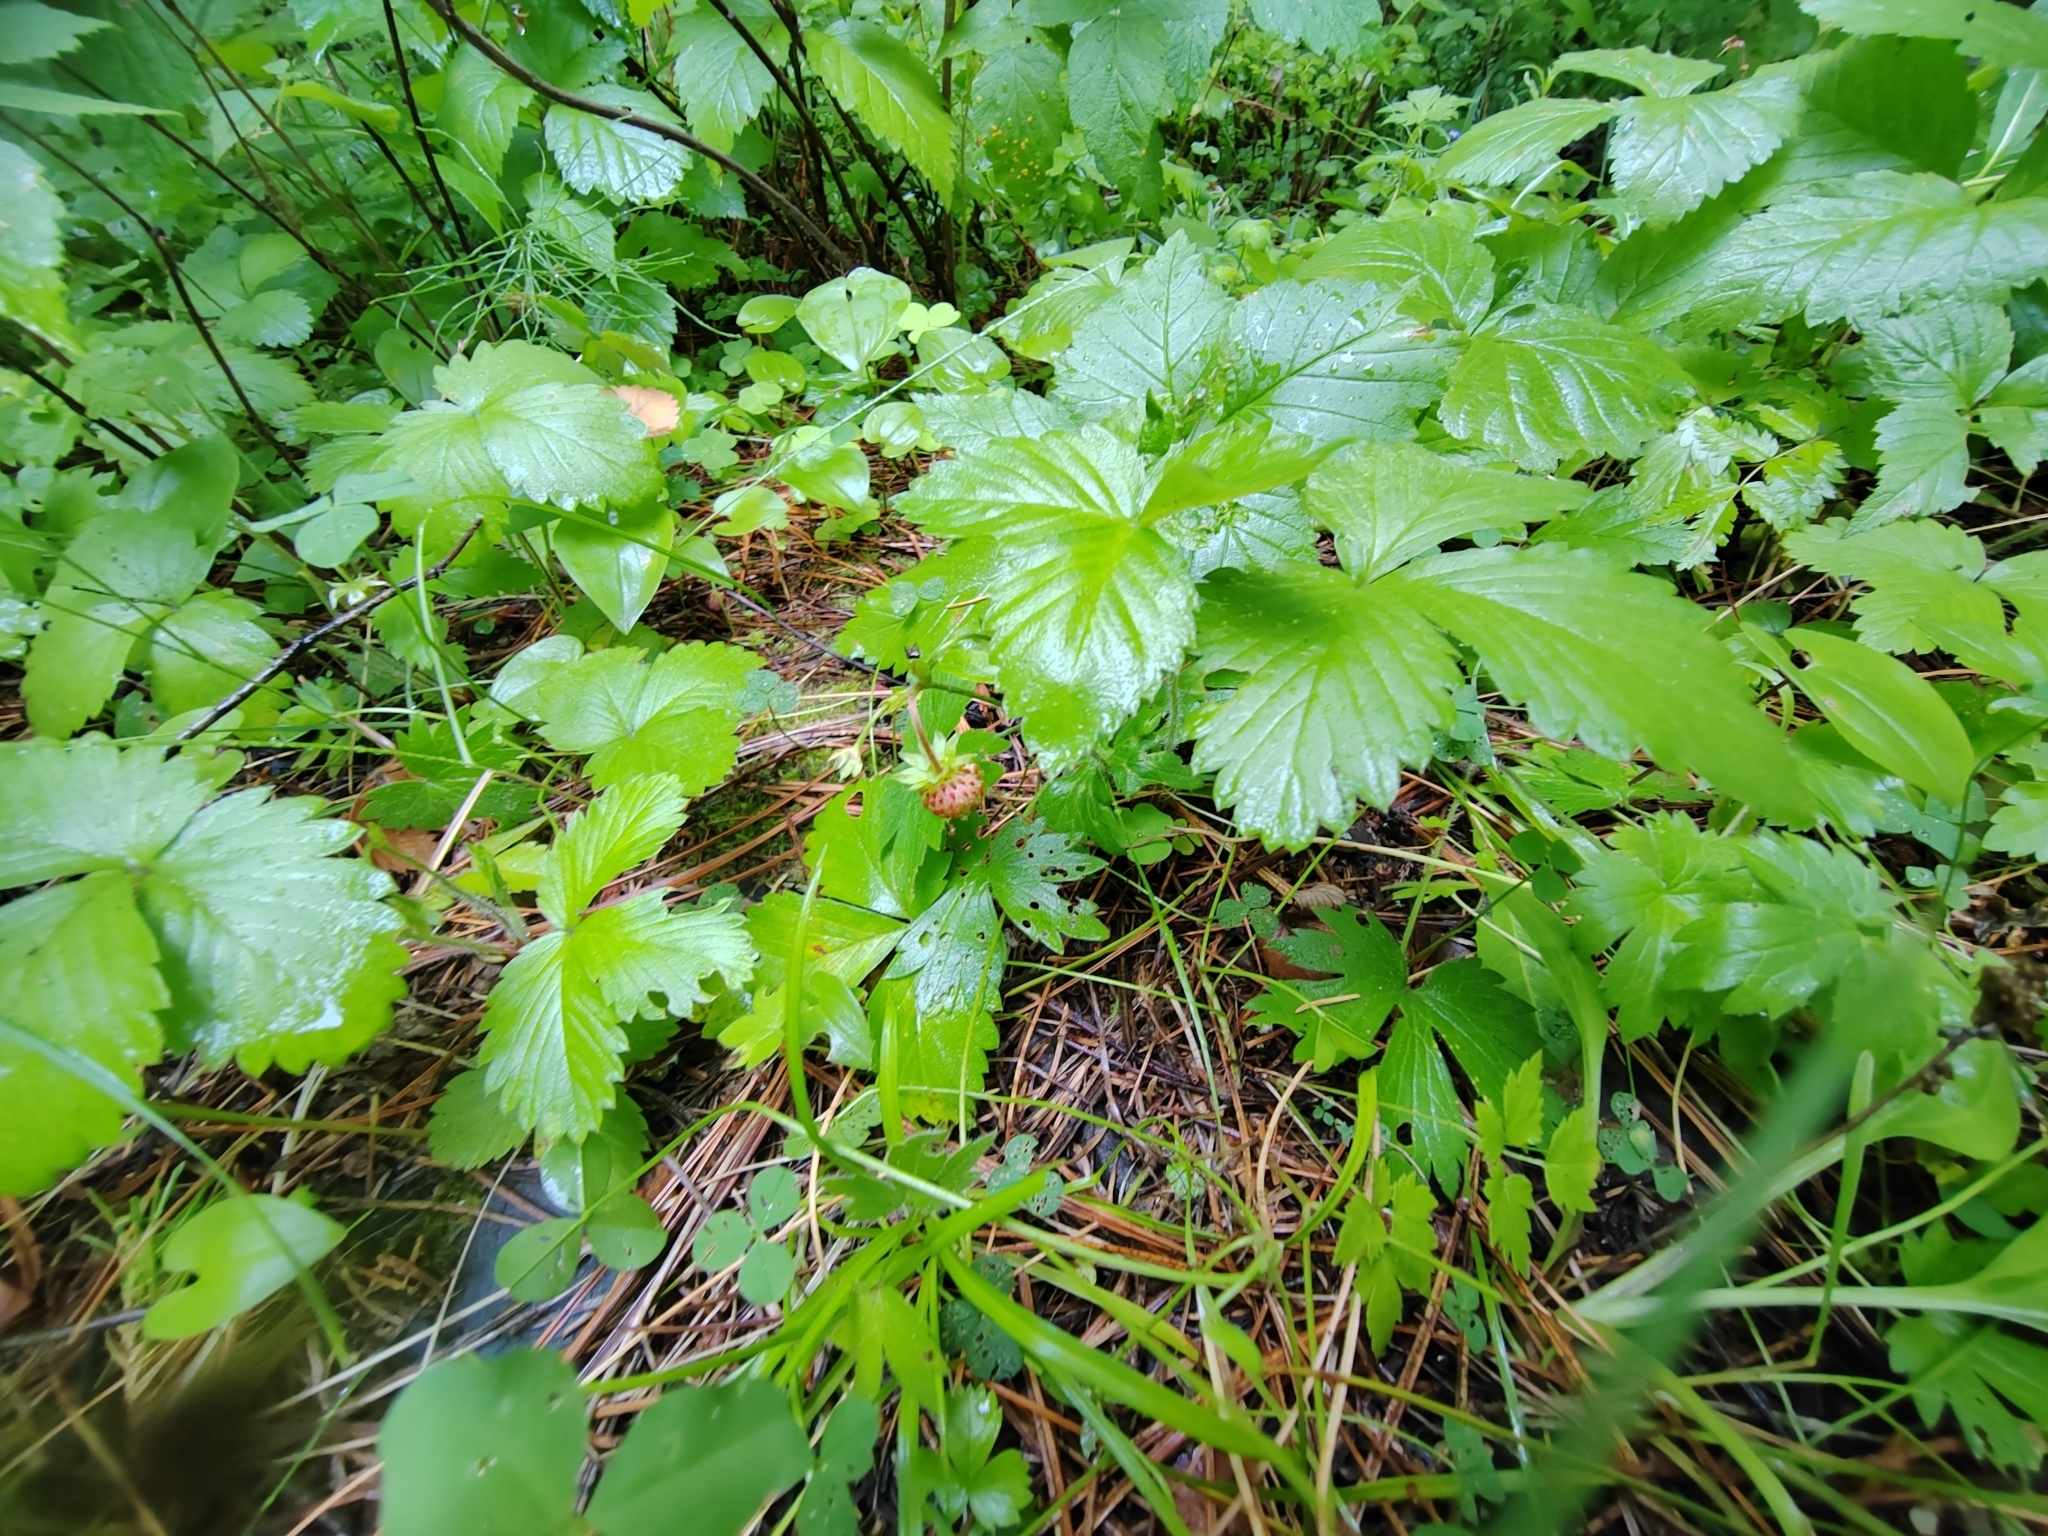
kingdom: Plantae
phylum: Tracheophyta
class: Magnoliopsida
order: Rosales
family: Rosaceae
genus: Fragaria
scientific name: Fragaria vesca
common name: Wild strawberry
